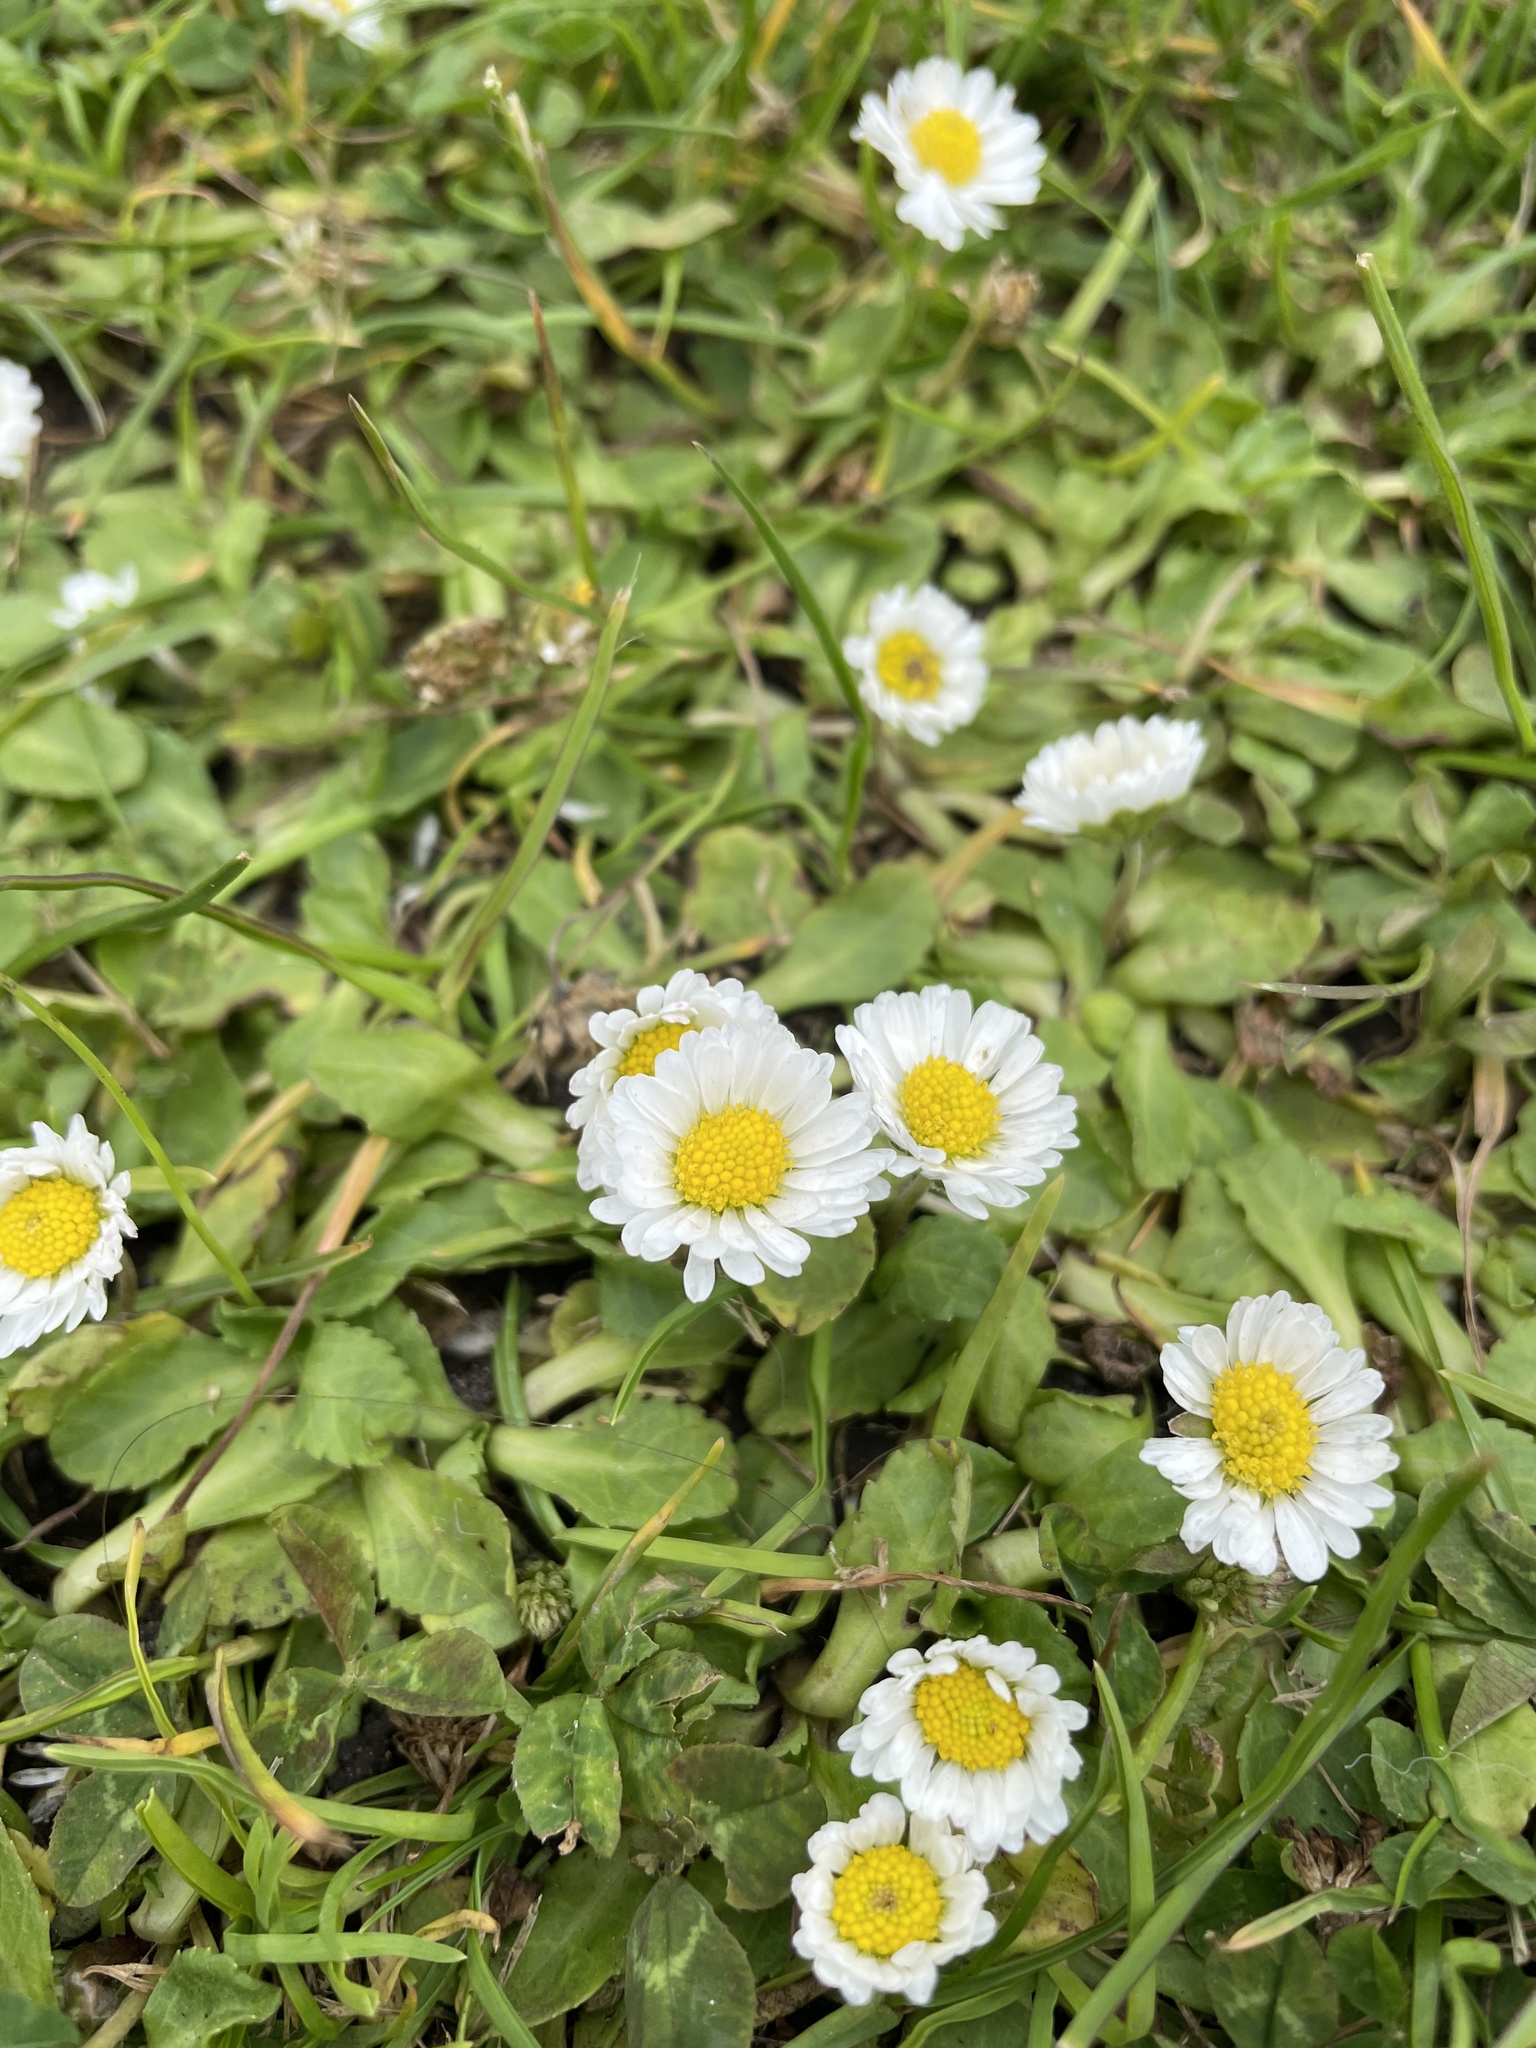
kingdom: Plantae
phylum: Tracheophyta
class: Magnoliopsida
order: Asterales
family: Asteraceae
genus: Bellis
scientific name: Bellis perennis
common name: Lawndaisy
